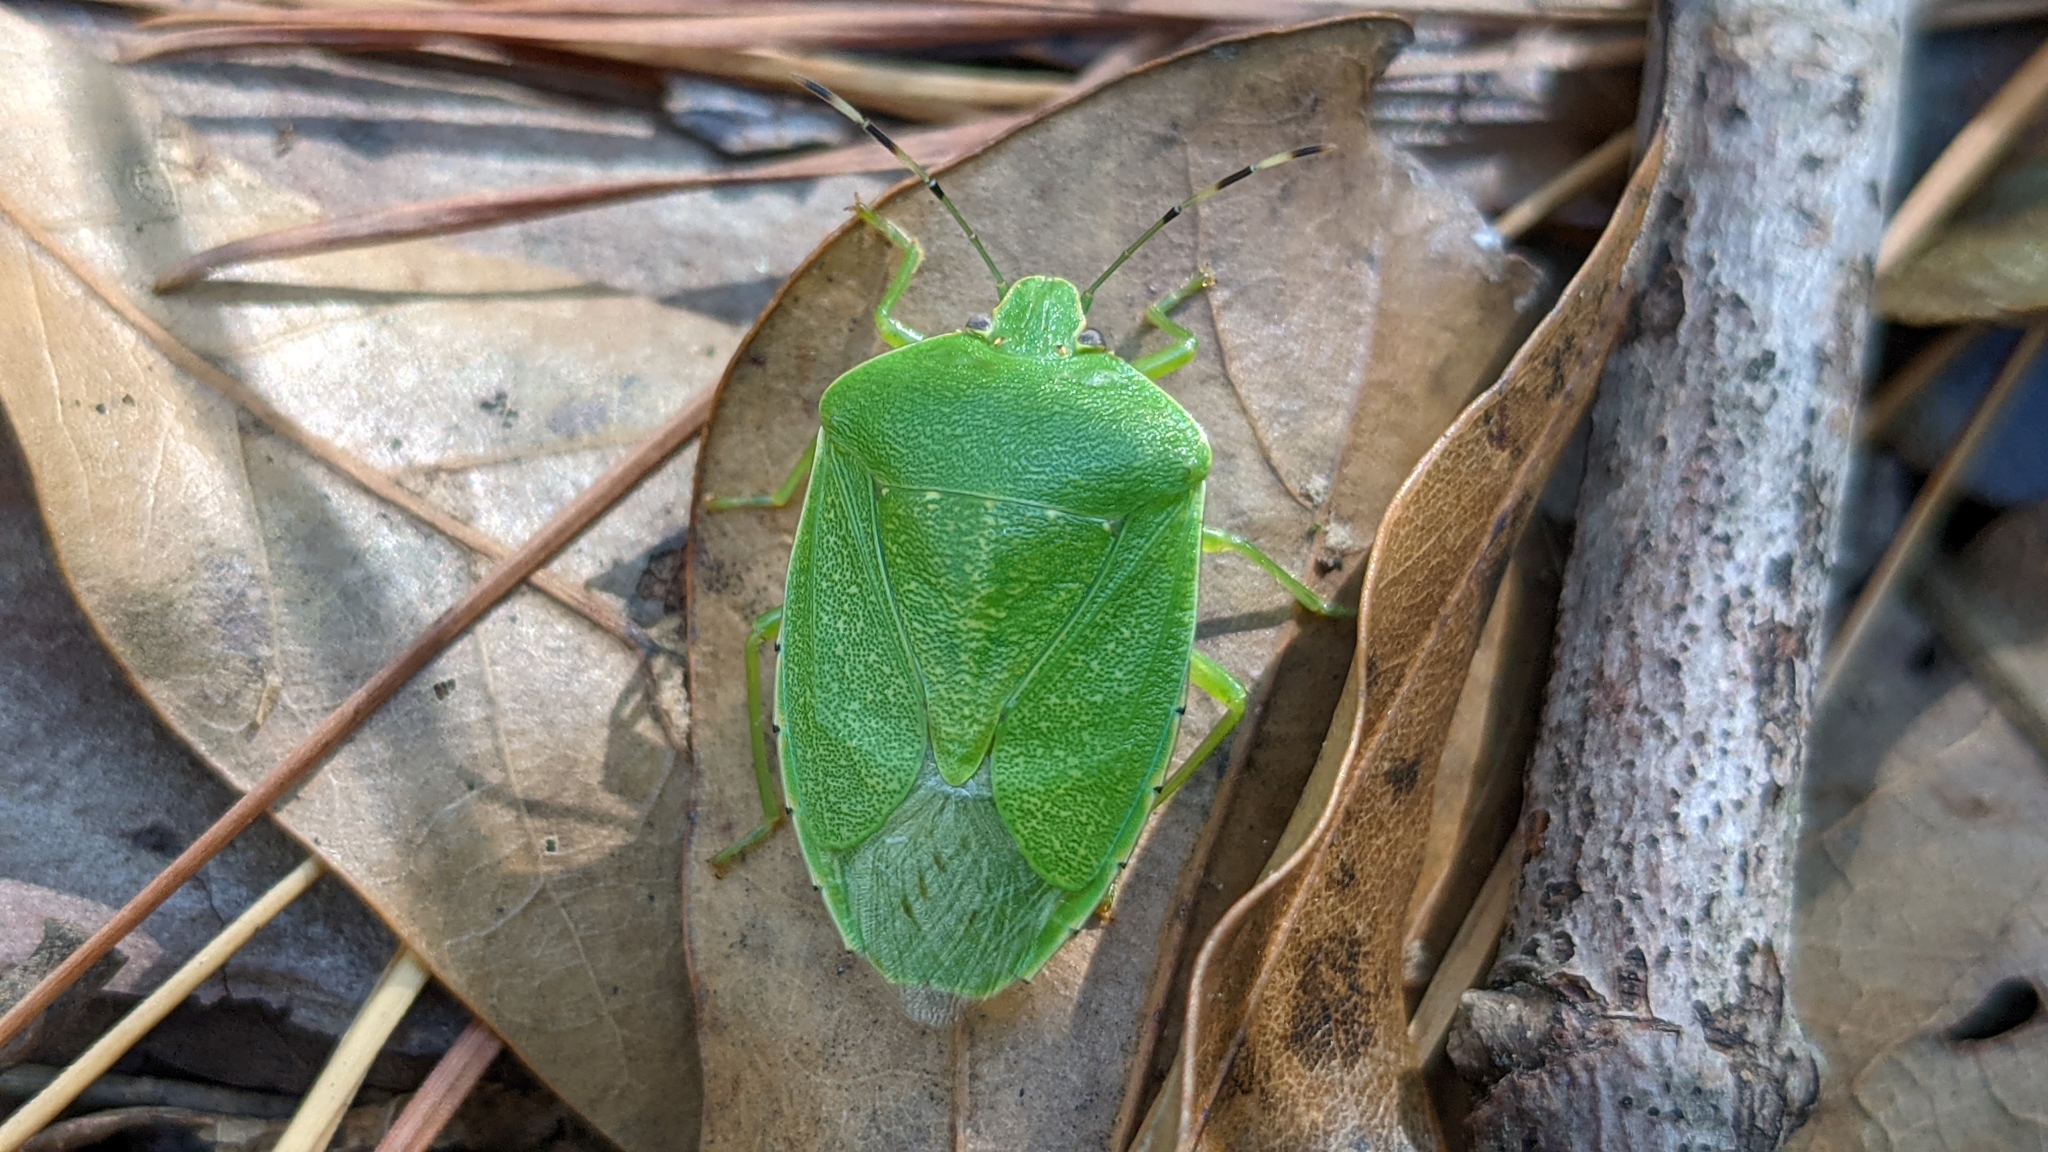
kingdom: Animalia
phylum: Arthropoda
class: Insecta
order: Hemiptera
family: Pentatomidae
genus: Chinavia
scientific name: Chinavia hilaris
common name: Green stink bug
